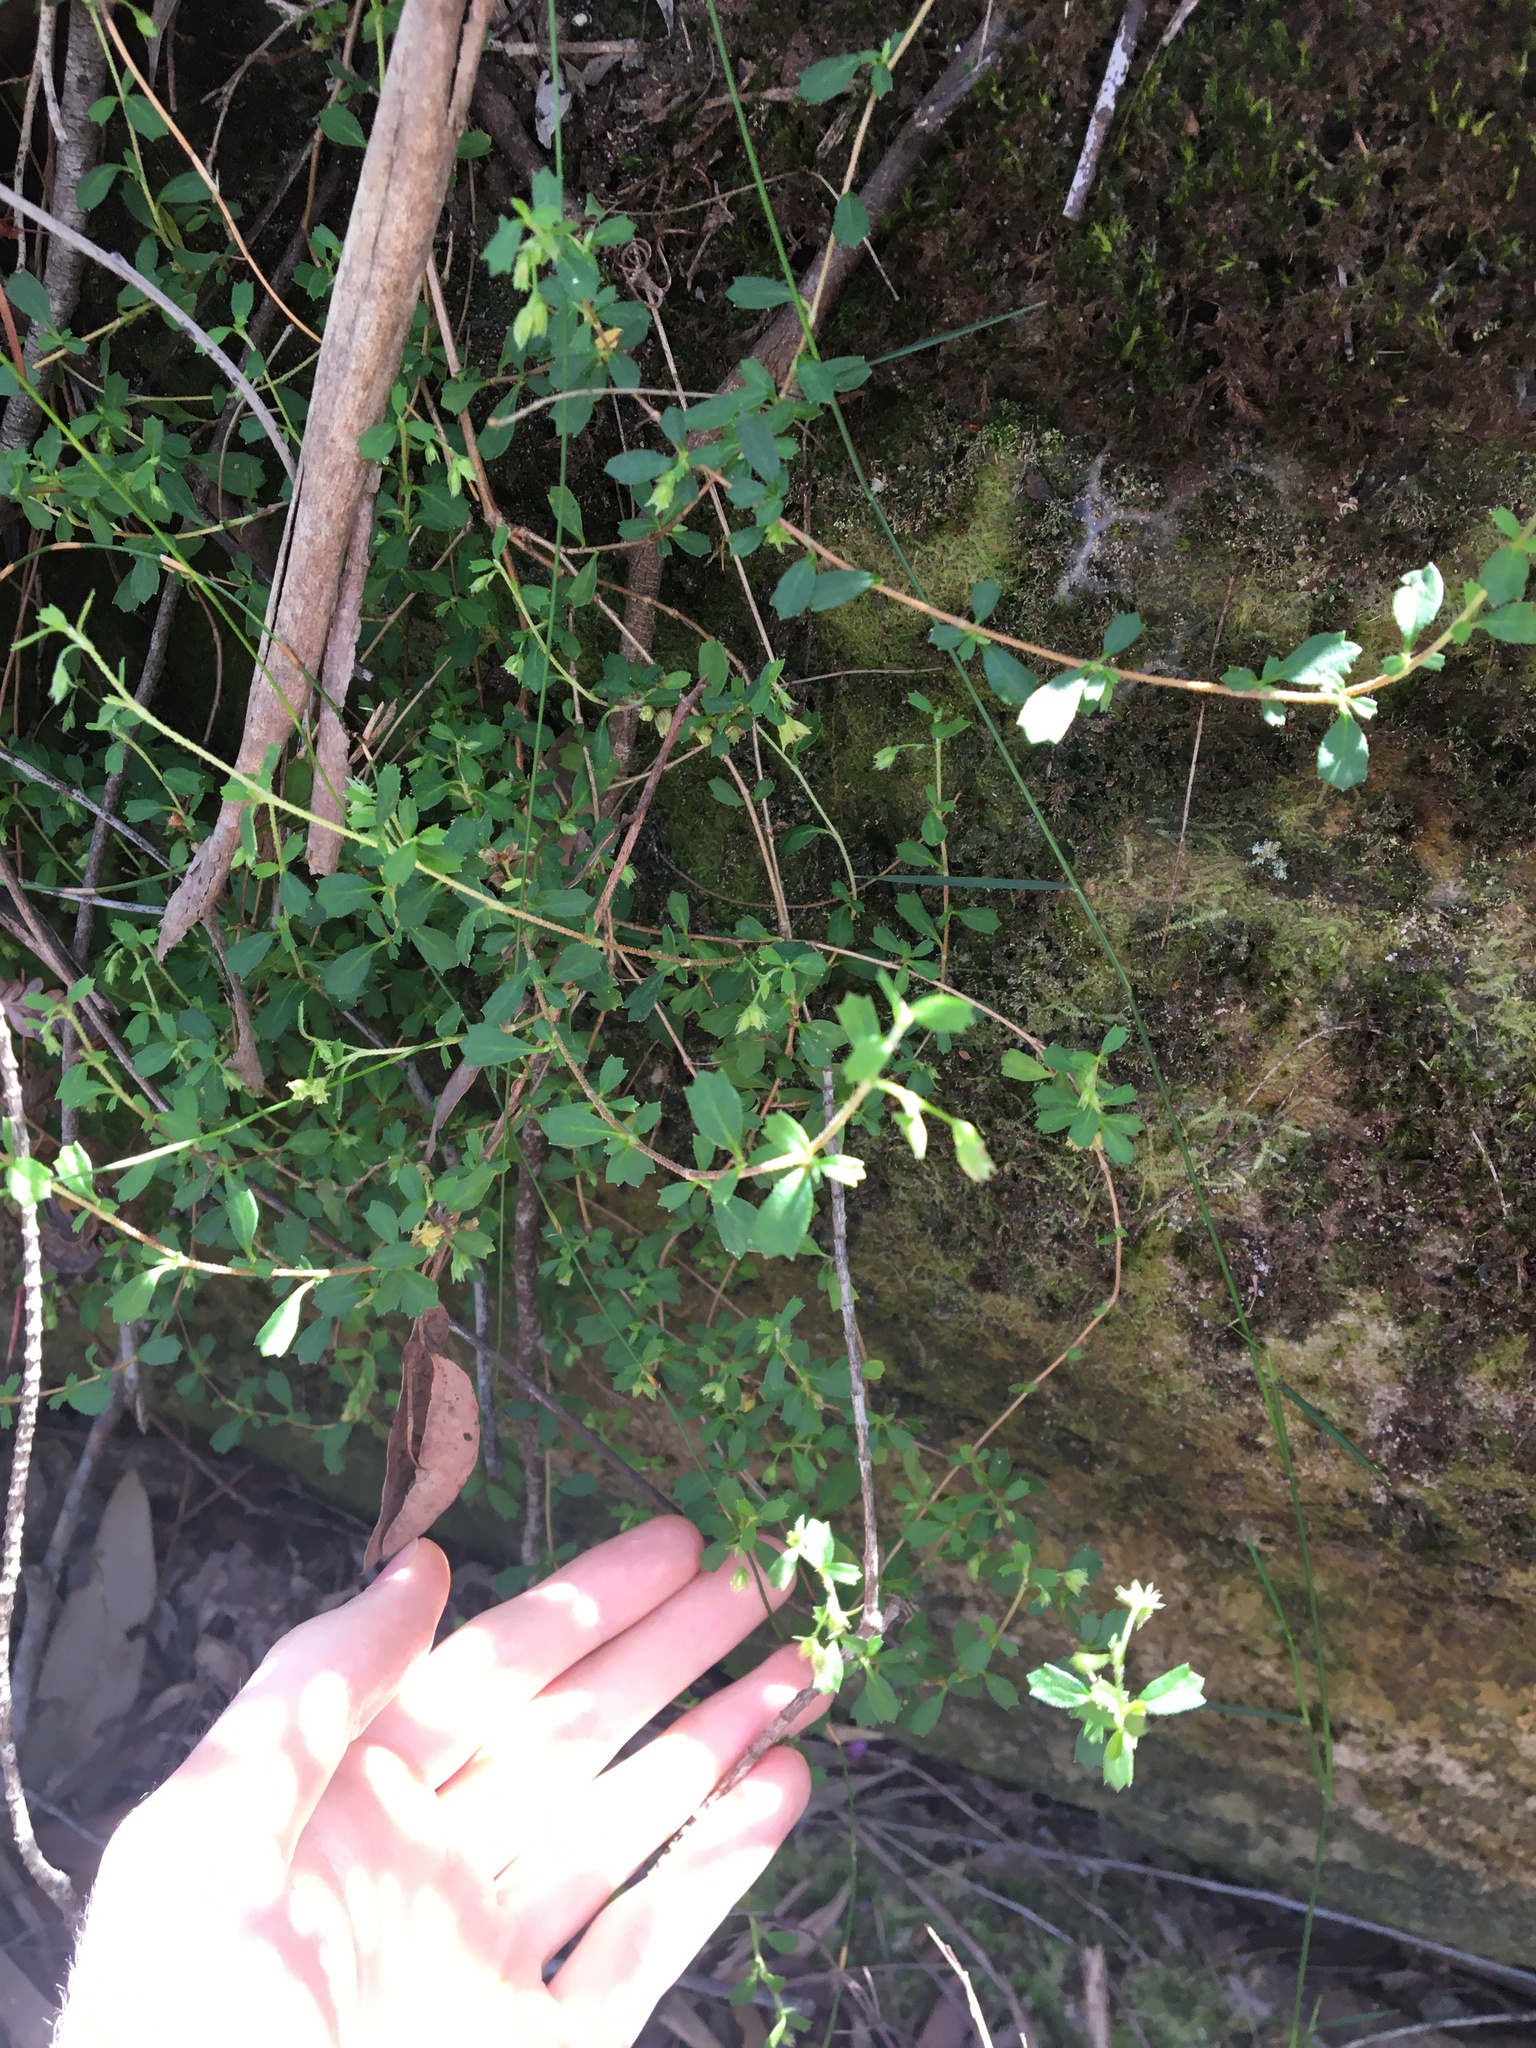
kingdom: Plantae
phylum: Tracheophyta
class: Magnoliopsida
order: Apiales
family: Apiaceae
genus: Xanthosia
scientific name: Xanthosia tridentata
